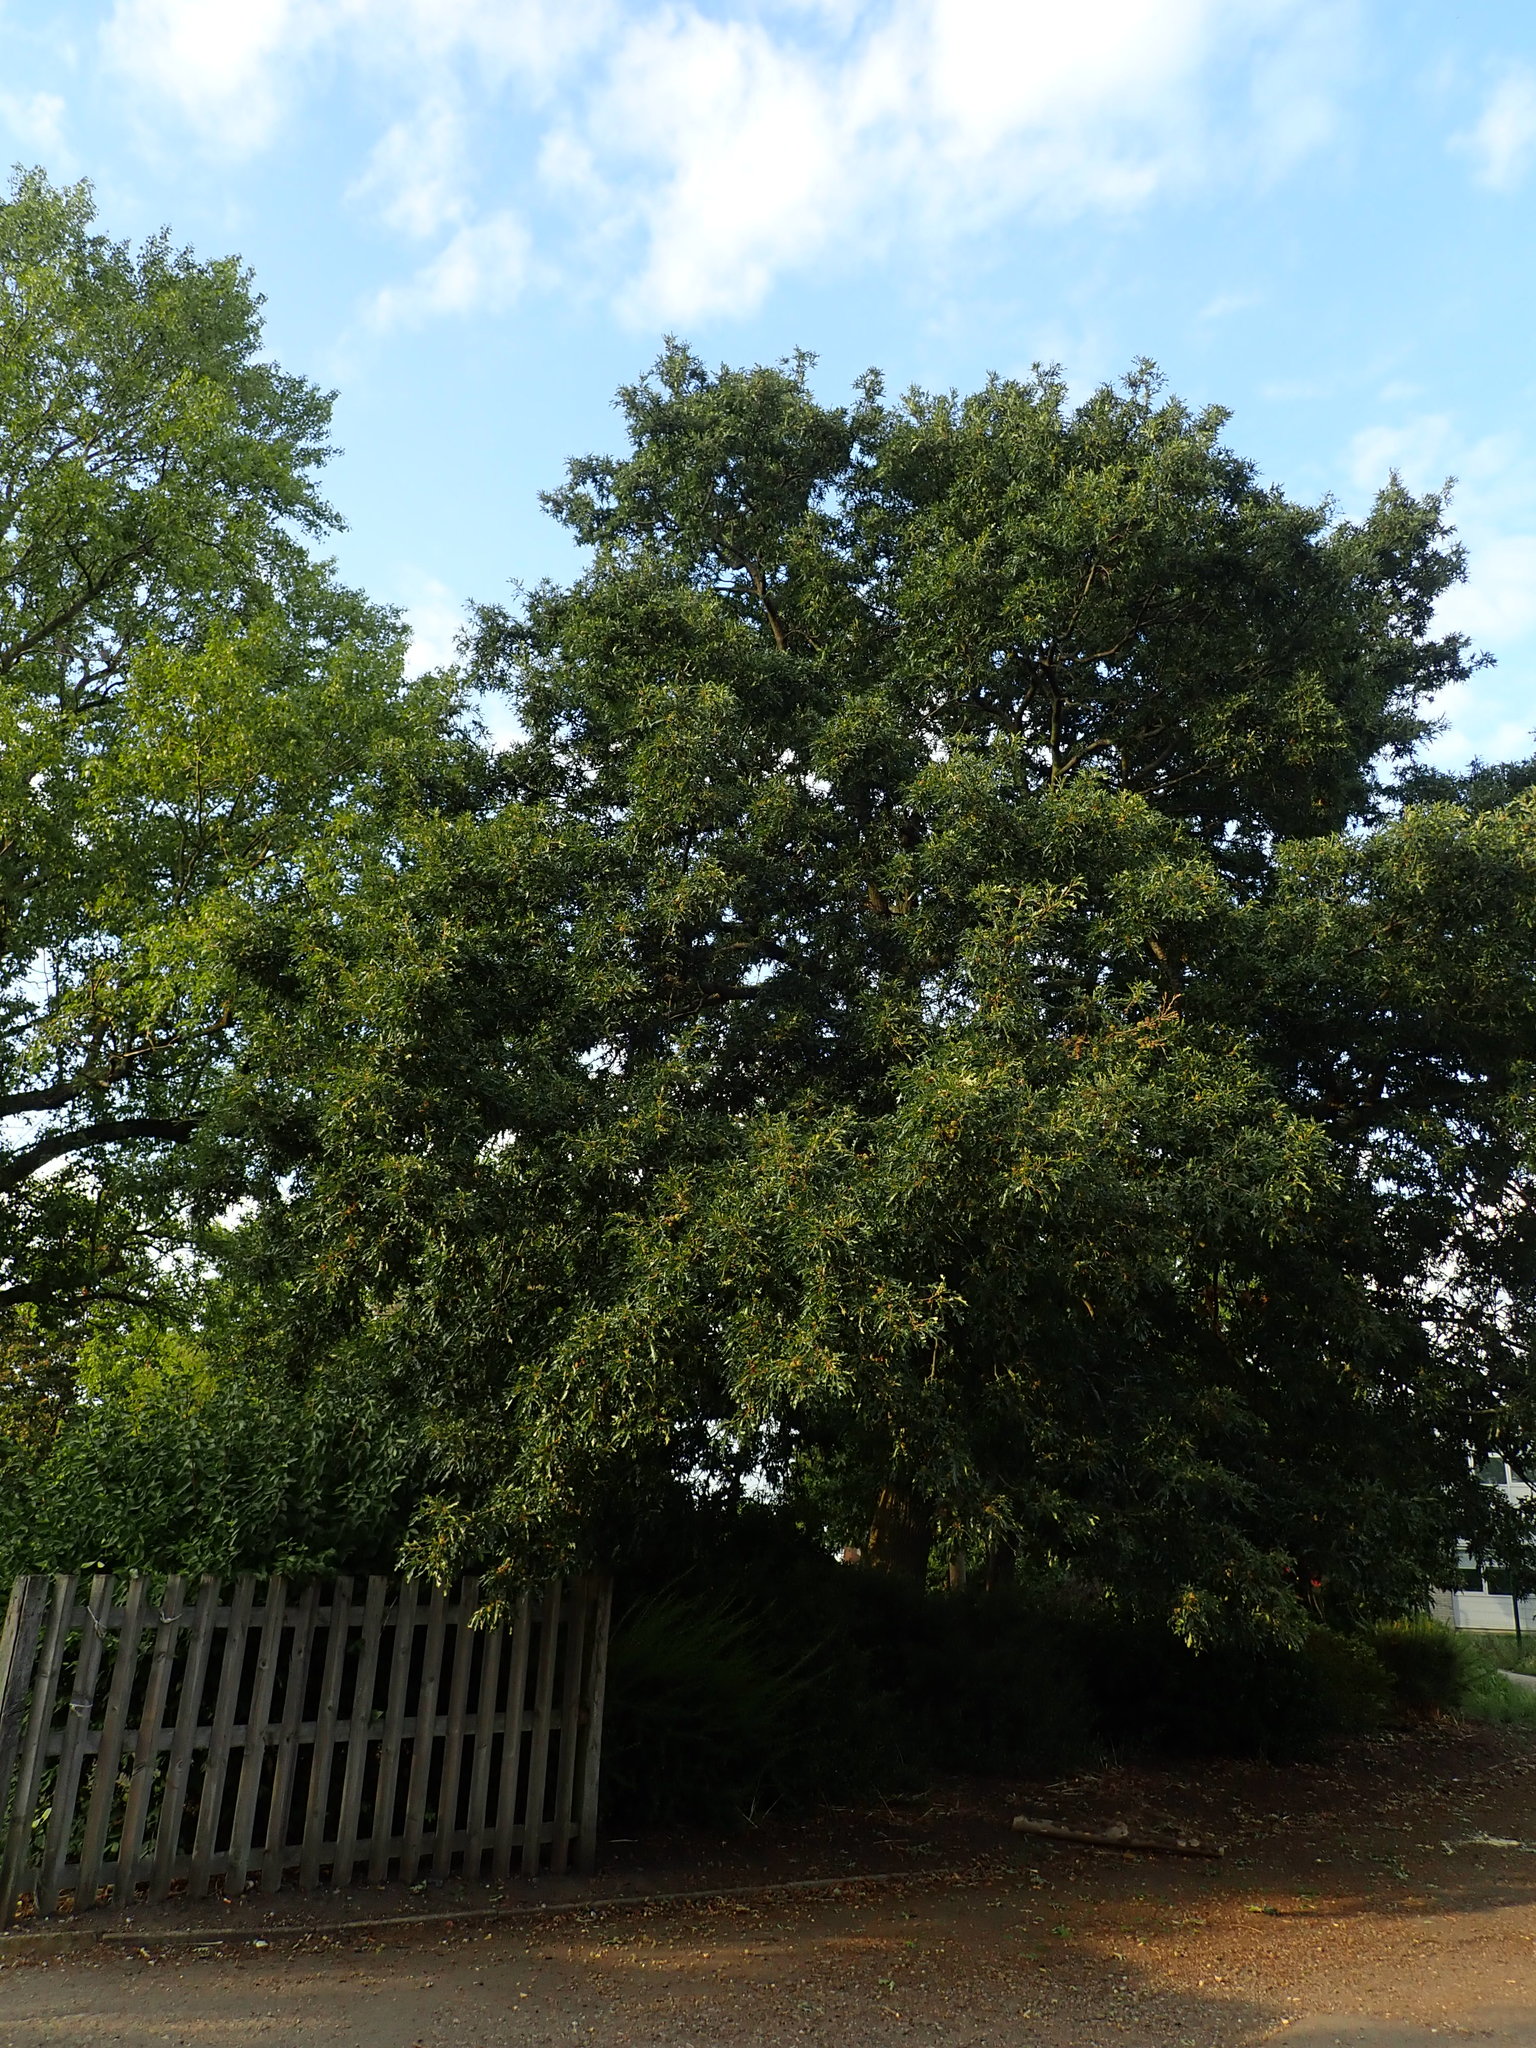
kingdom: Plantae
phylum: Tracheophyta
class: Magnoliopsida
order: Fagales
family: Fagaceae
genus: Quercus
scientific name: Quercus cerris
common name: Turkey oak
